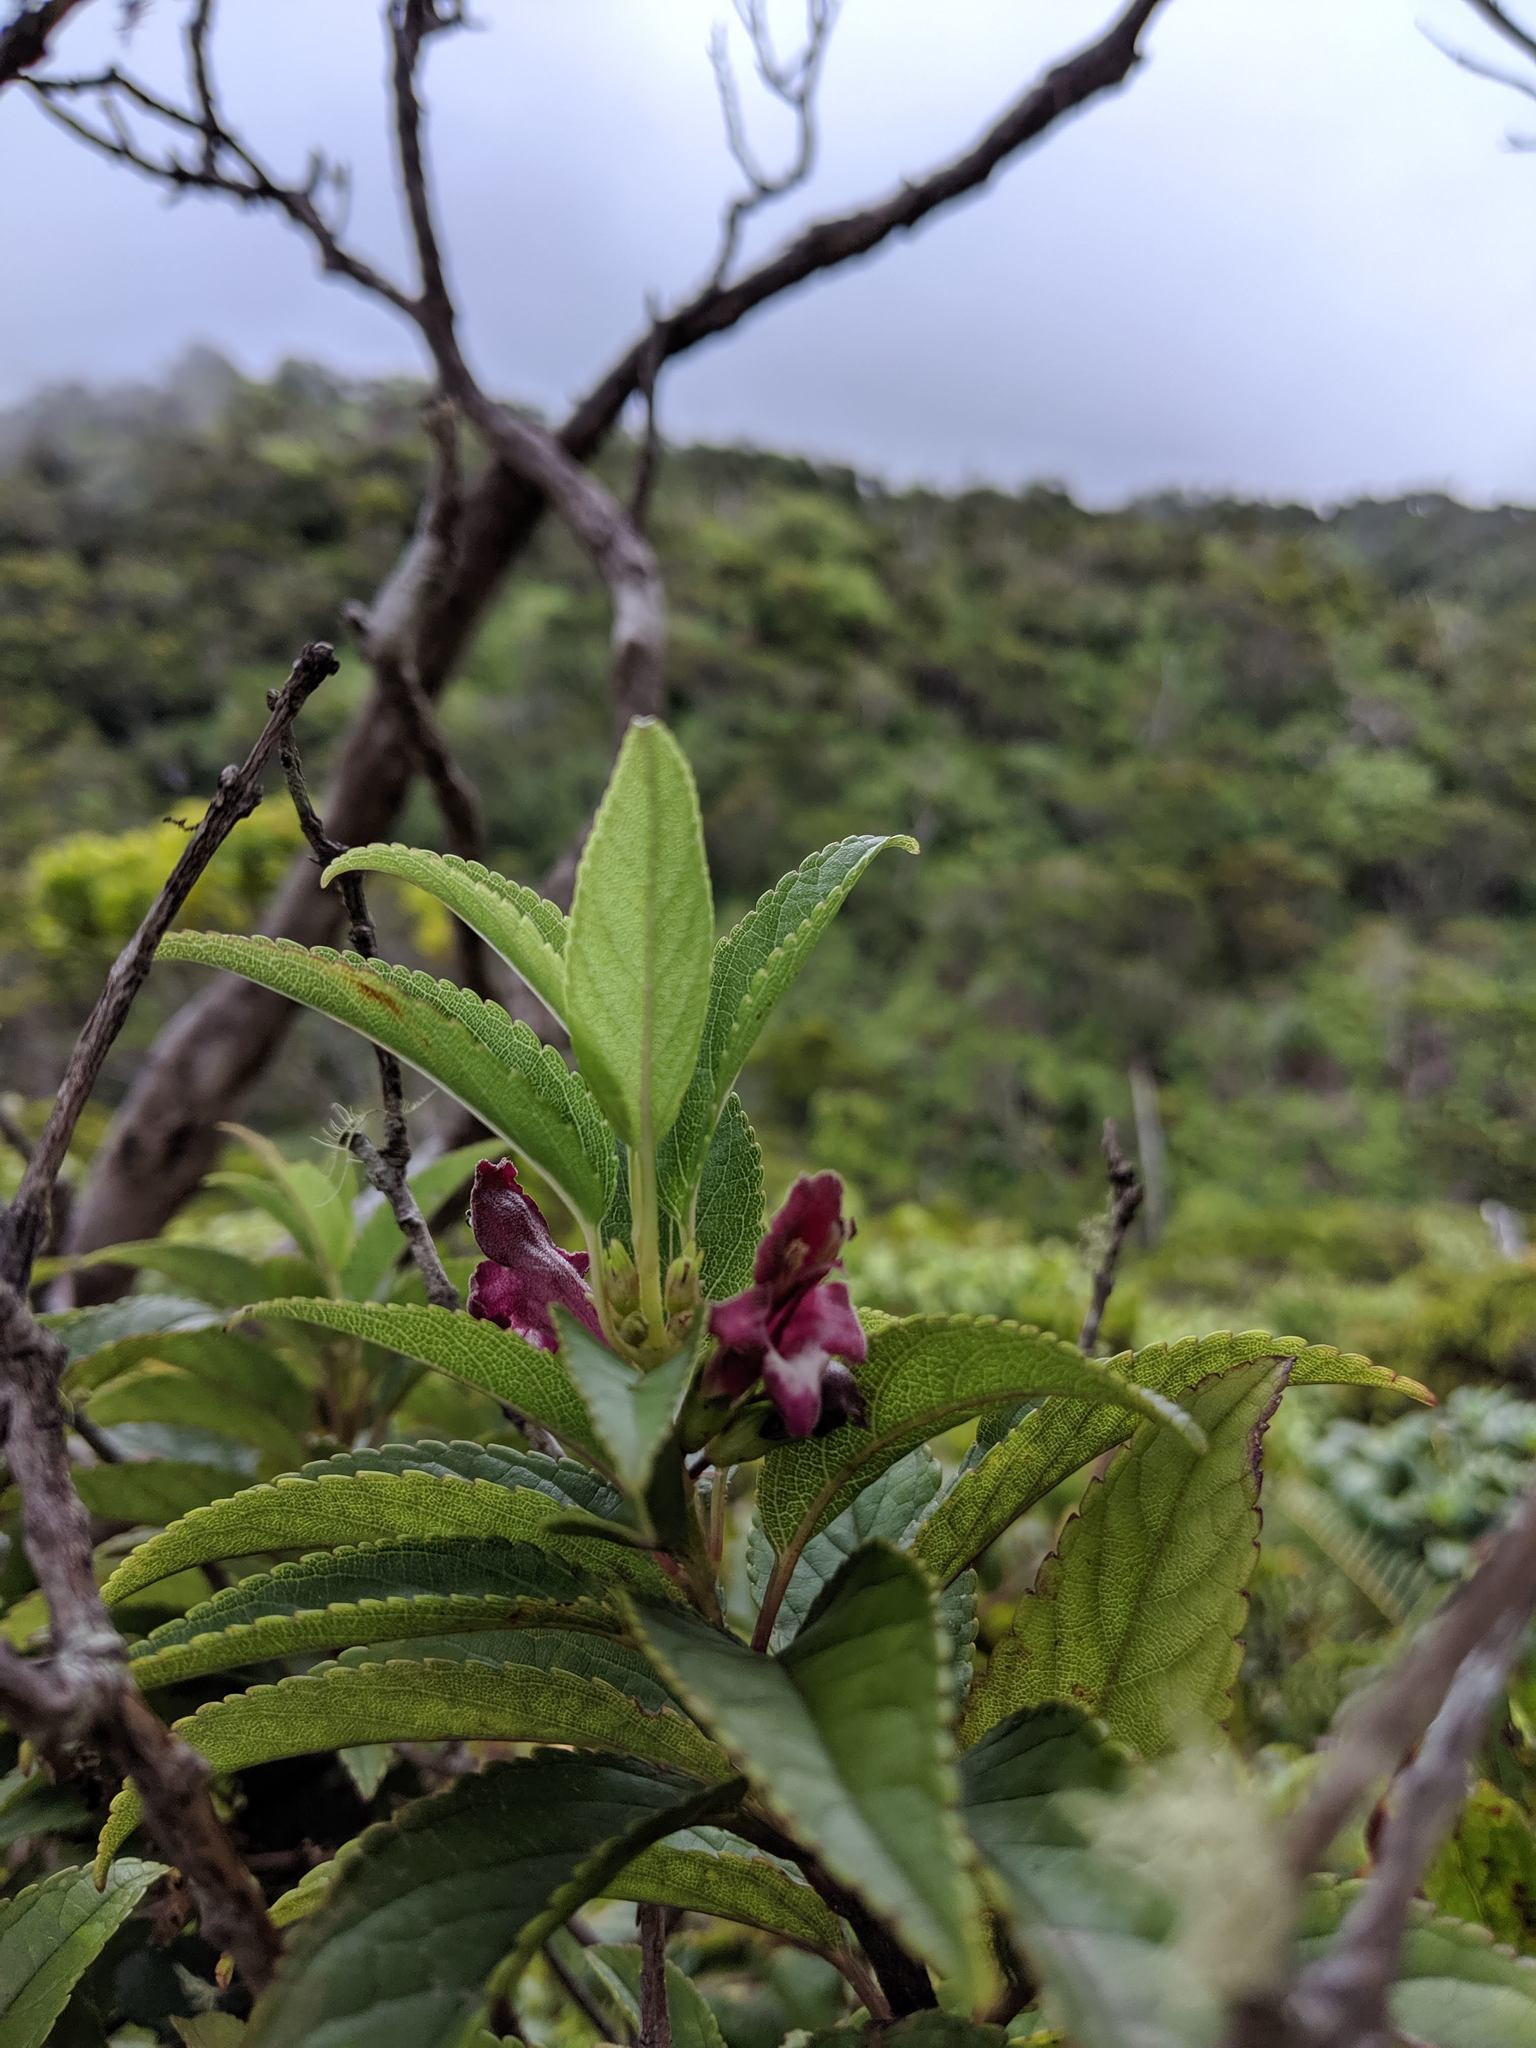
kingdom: Plantae
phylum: Tracheophyta
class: Magnoliopsida
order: Lamiales
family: Lamiaceae
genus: Stenogyne
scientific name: Stenogyne purpurea
